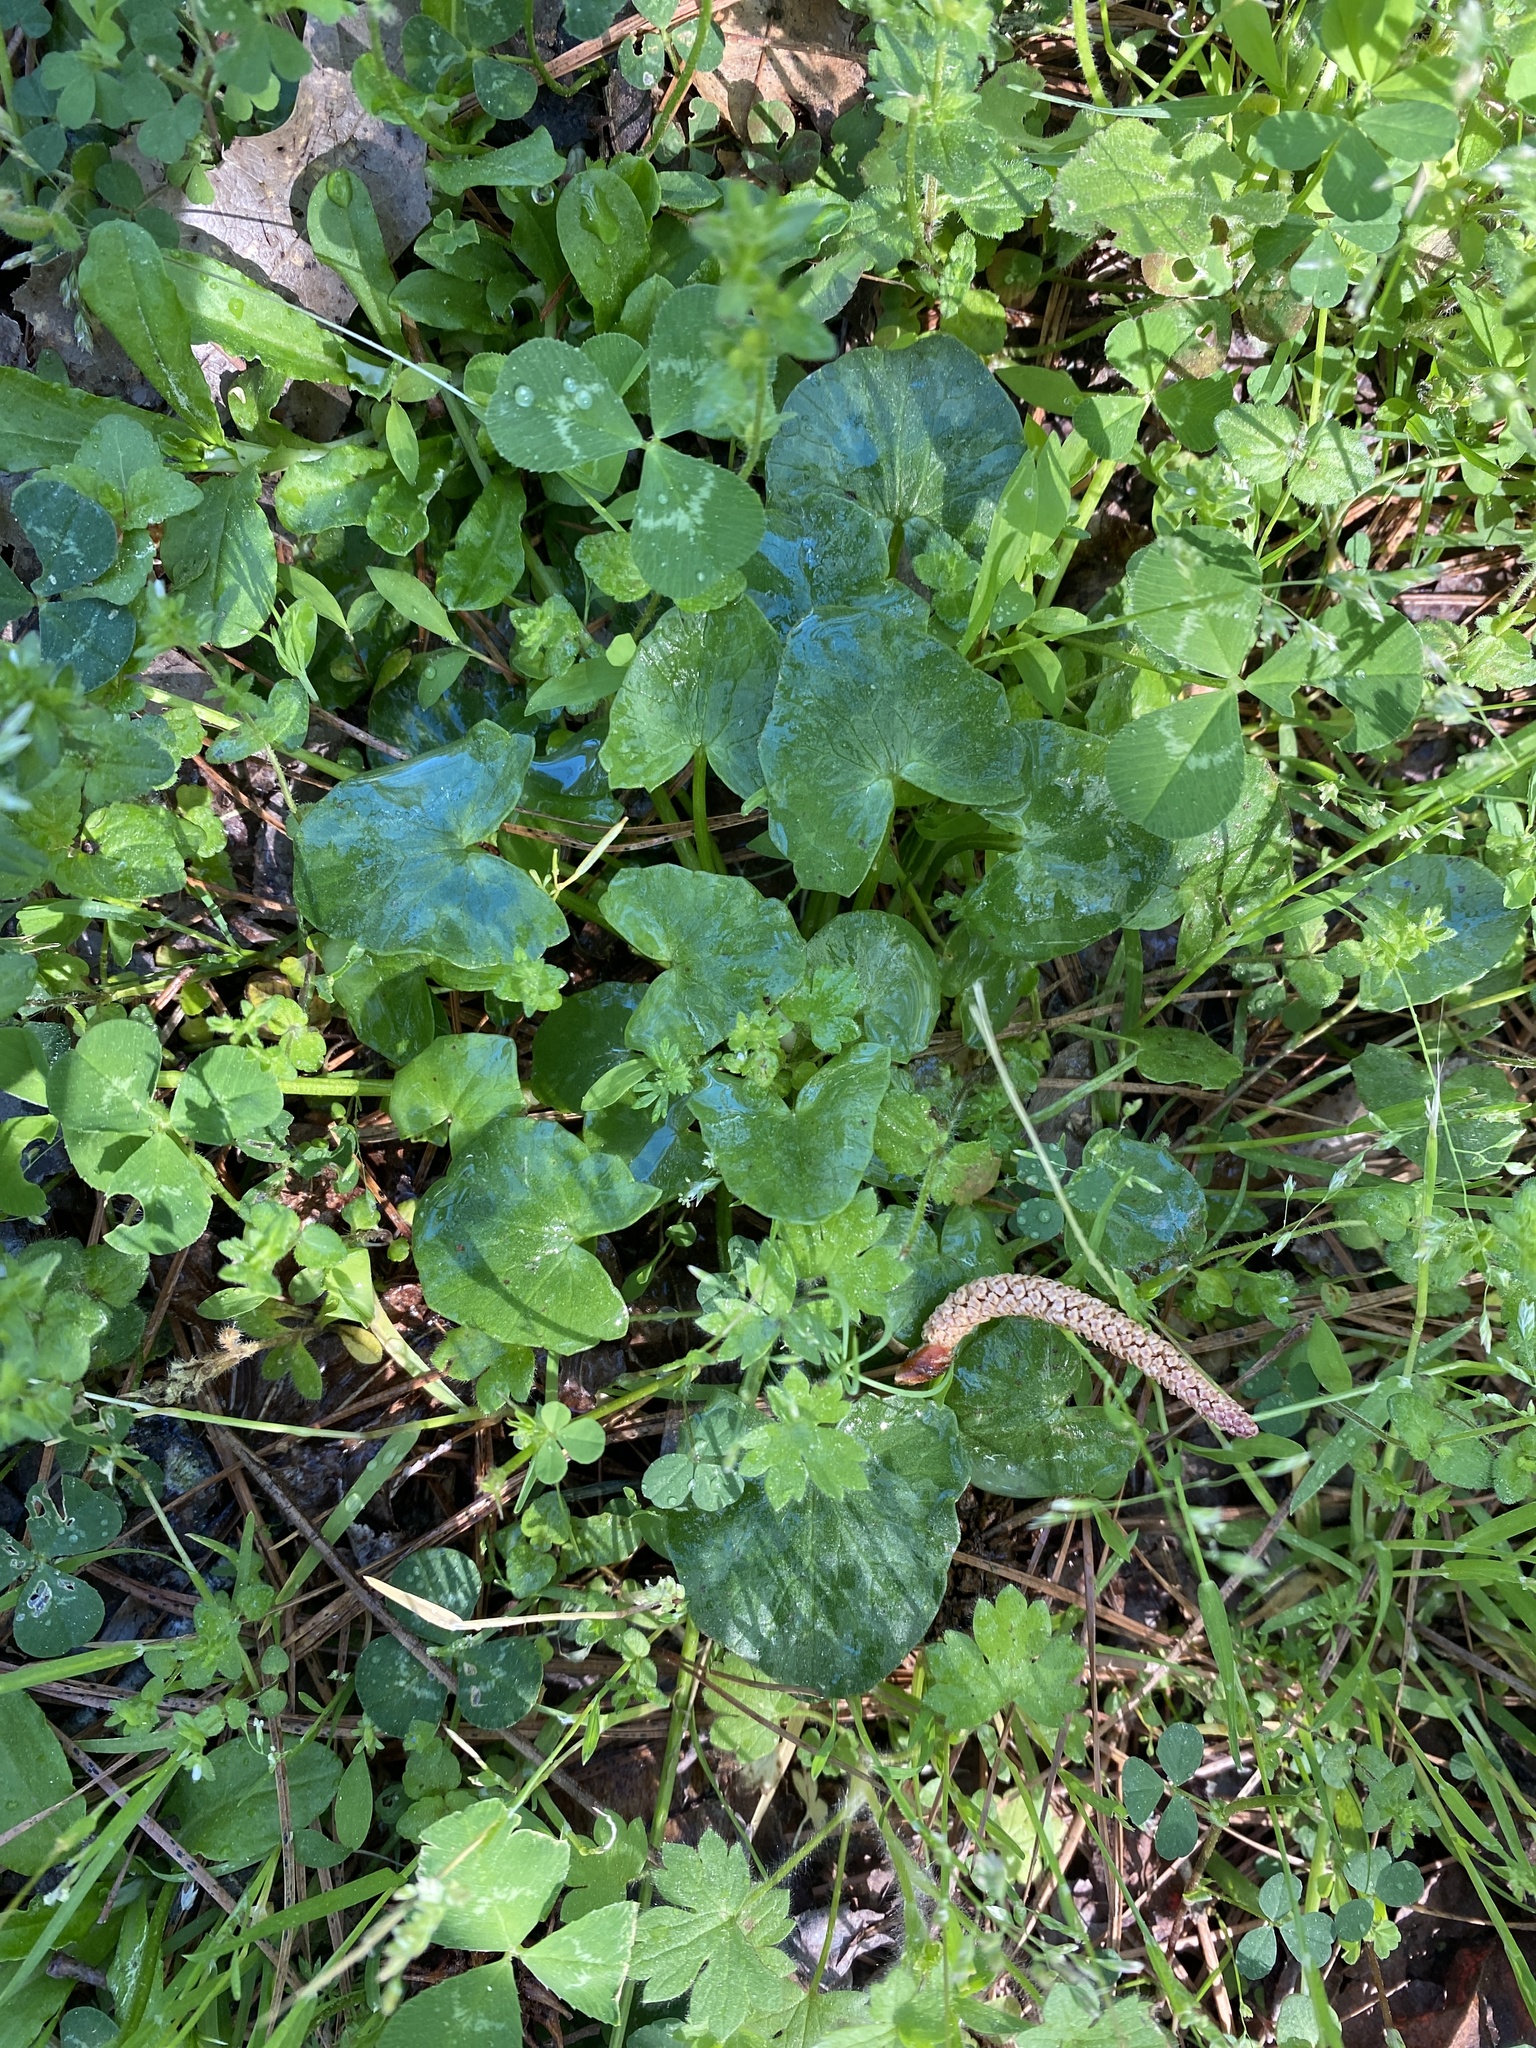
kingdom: Plantae
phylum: Tracheophyta
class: Magnoliopsida
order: Ranunculales
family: Ranunculaceae
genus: Ficaria
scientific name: Ficaria verna
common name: Lesser celandine
